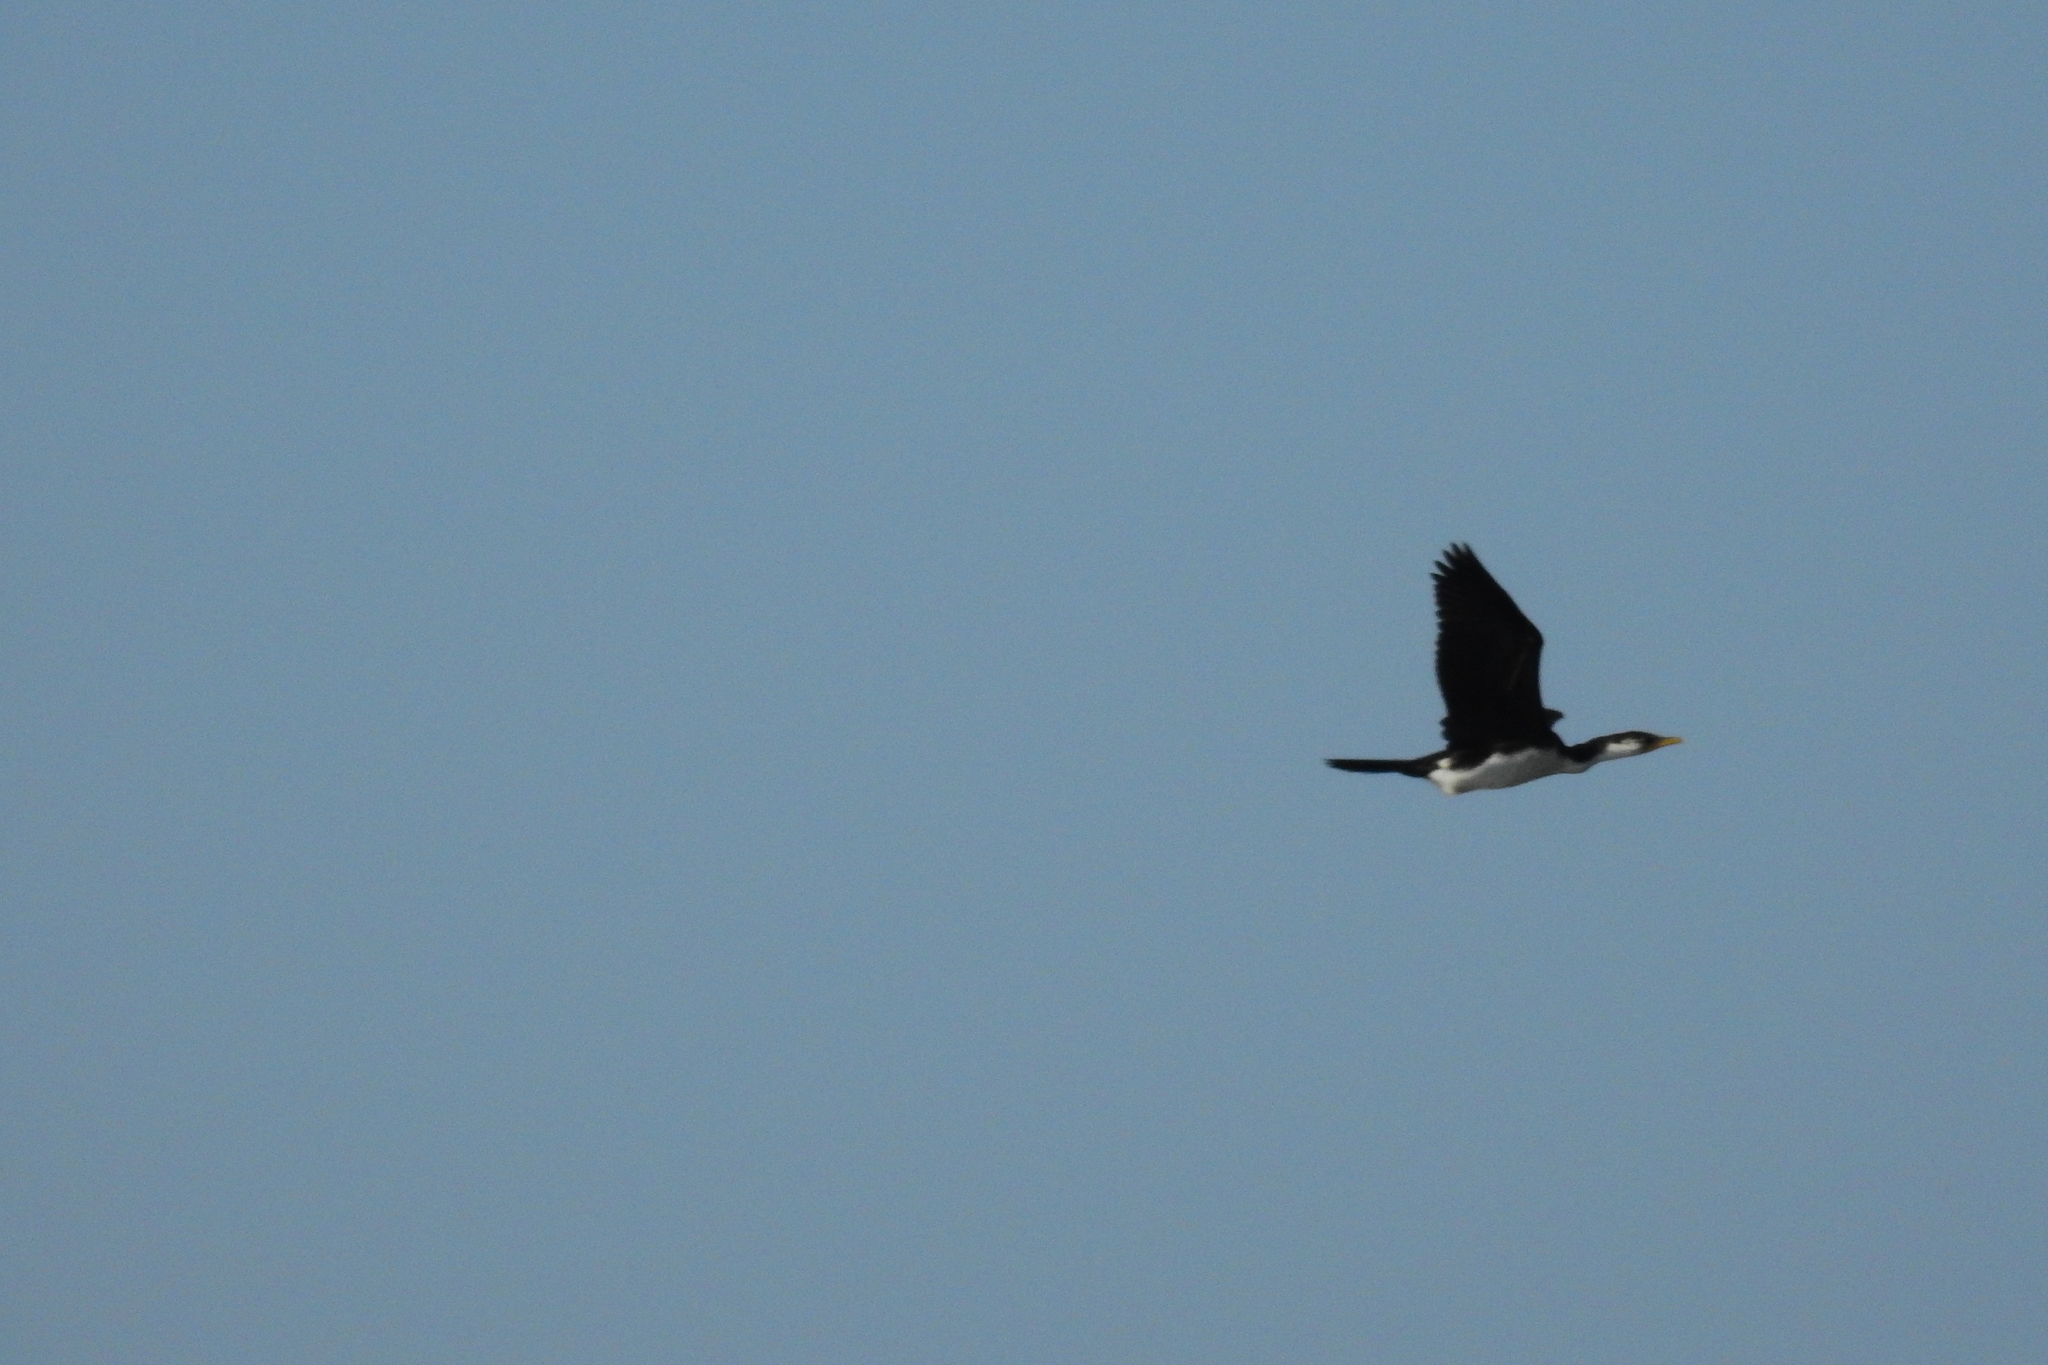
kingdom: Animalia
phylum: Chordata
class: Aves
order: Suliformes
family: Phalacrocoracidae
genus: Microcarbo
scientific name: Microcarbo melanoleucos
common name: Little pied cormorant
